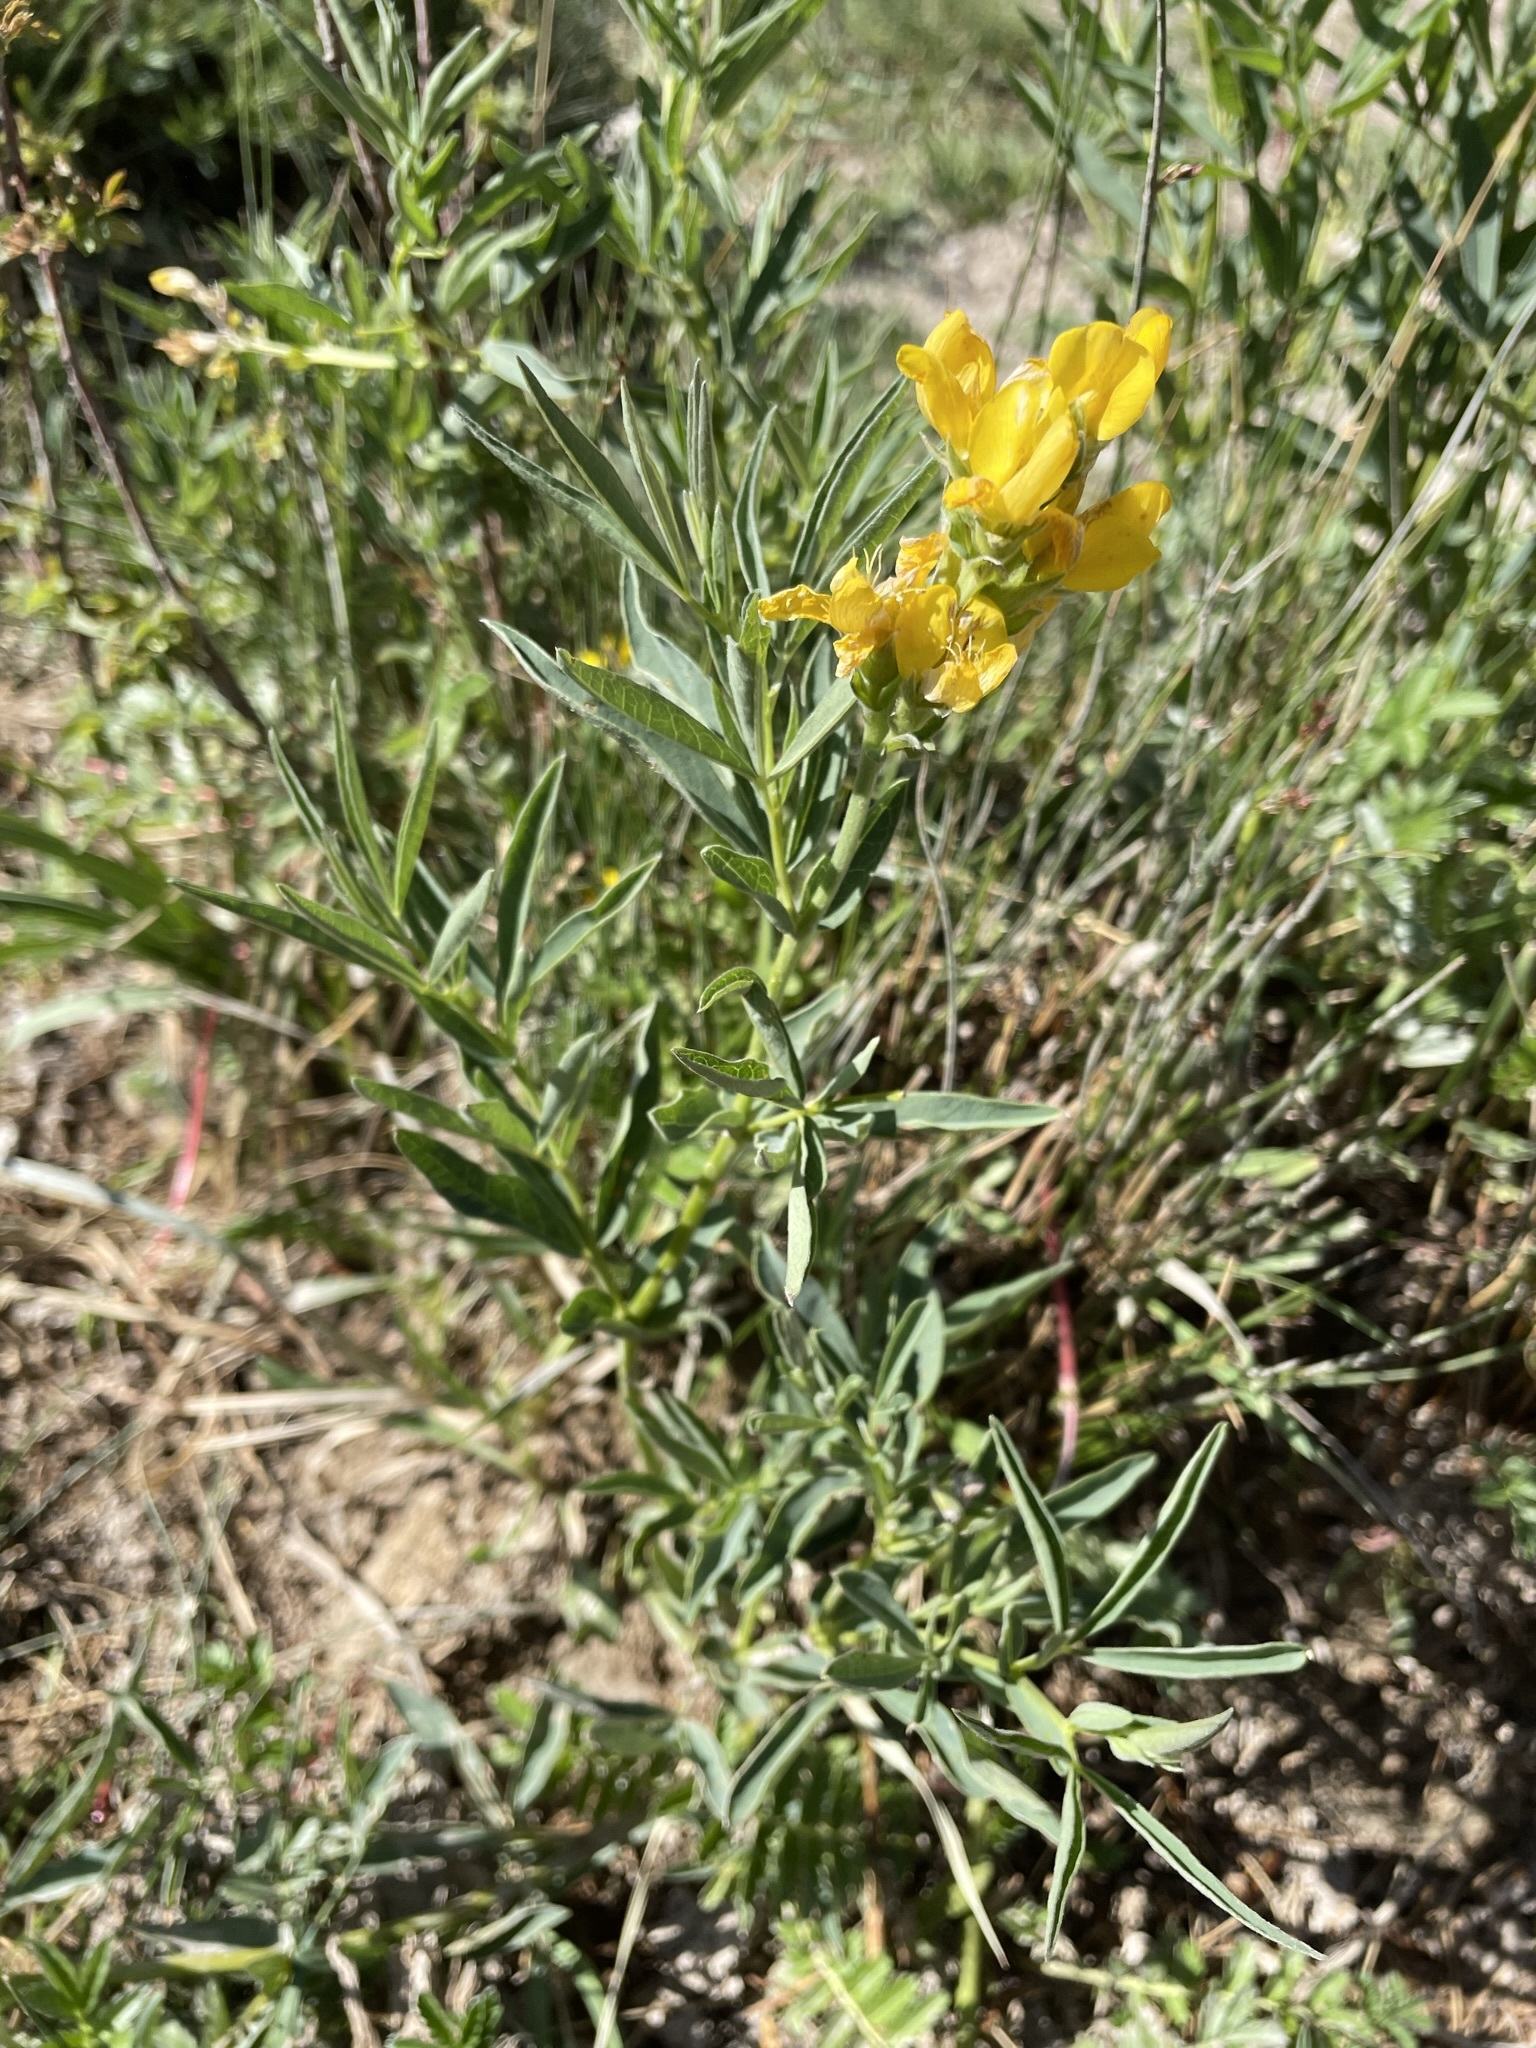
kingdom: Plantae
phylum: Tracheophyta
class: Magnoliopsida
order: Fabales
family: Fabaceae
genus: Thermopsis
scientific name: Thermopsis montana
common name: False lupin
